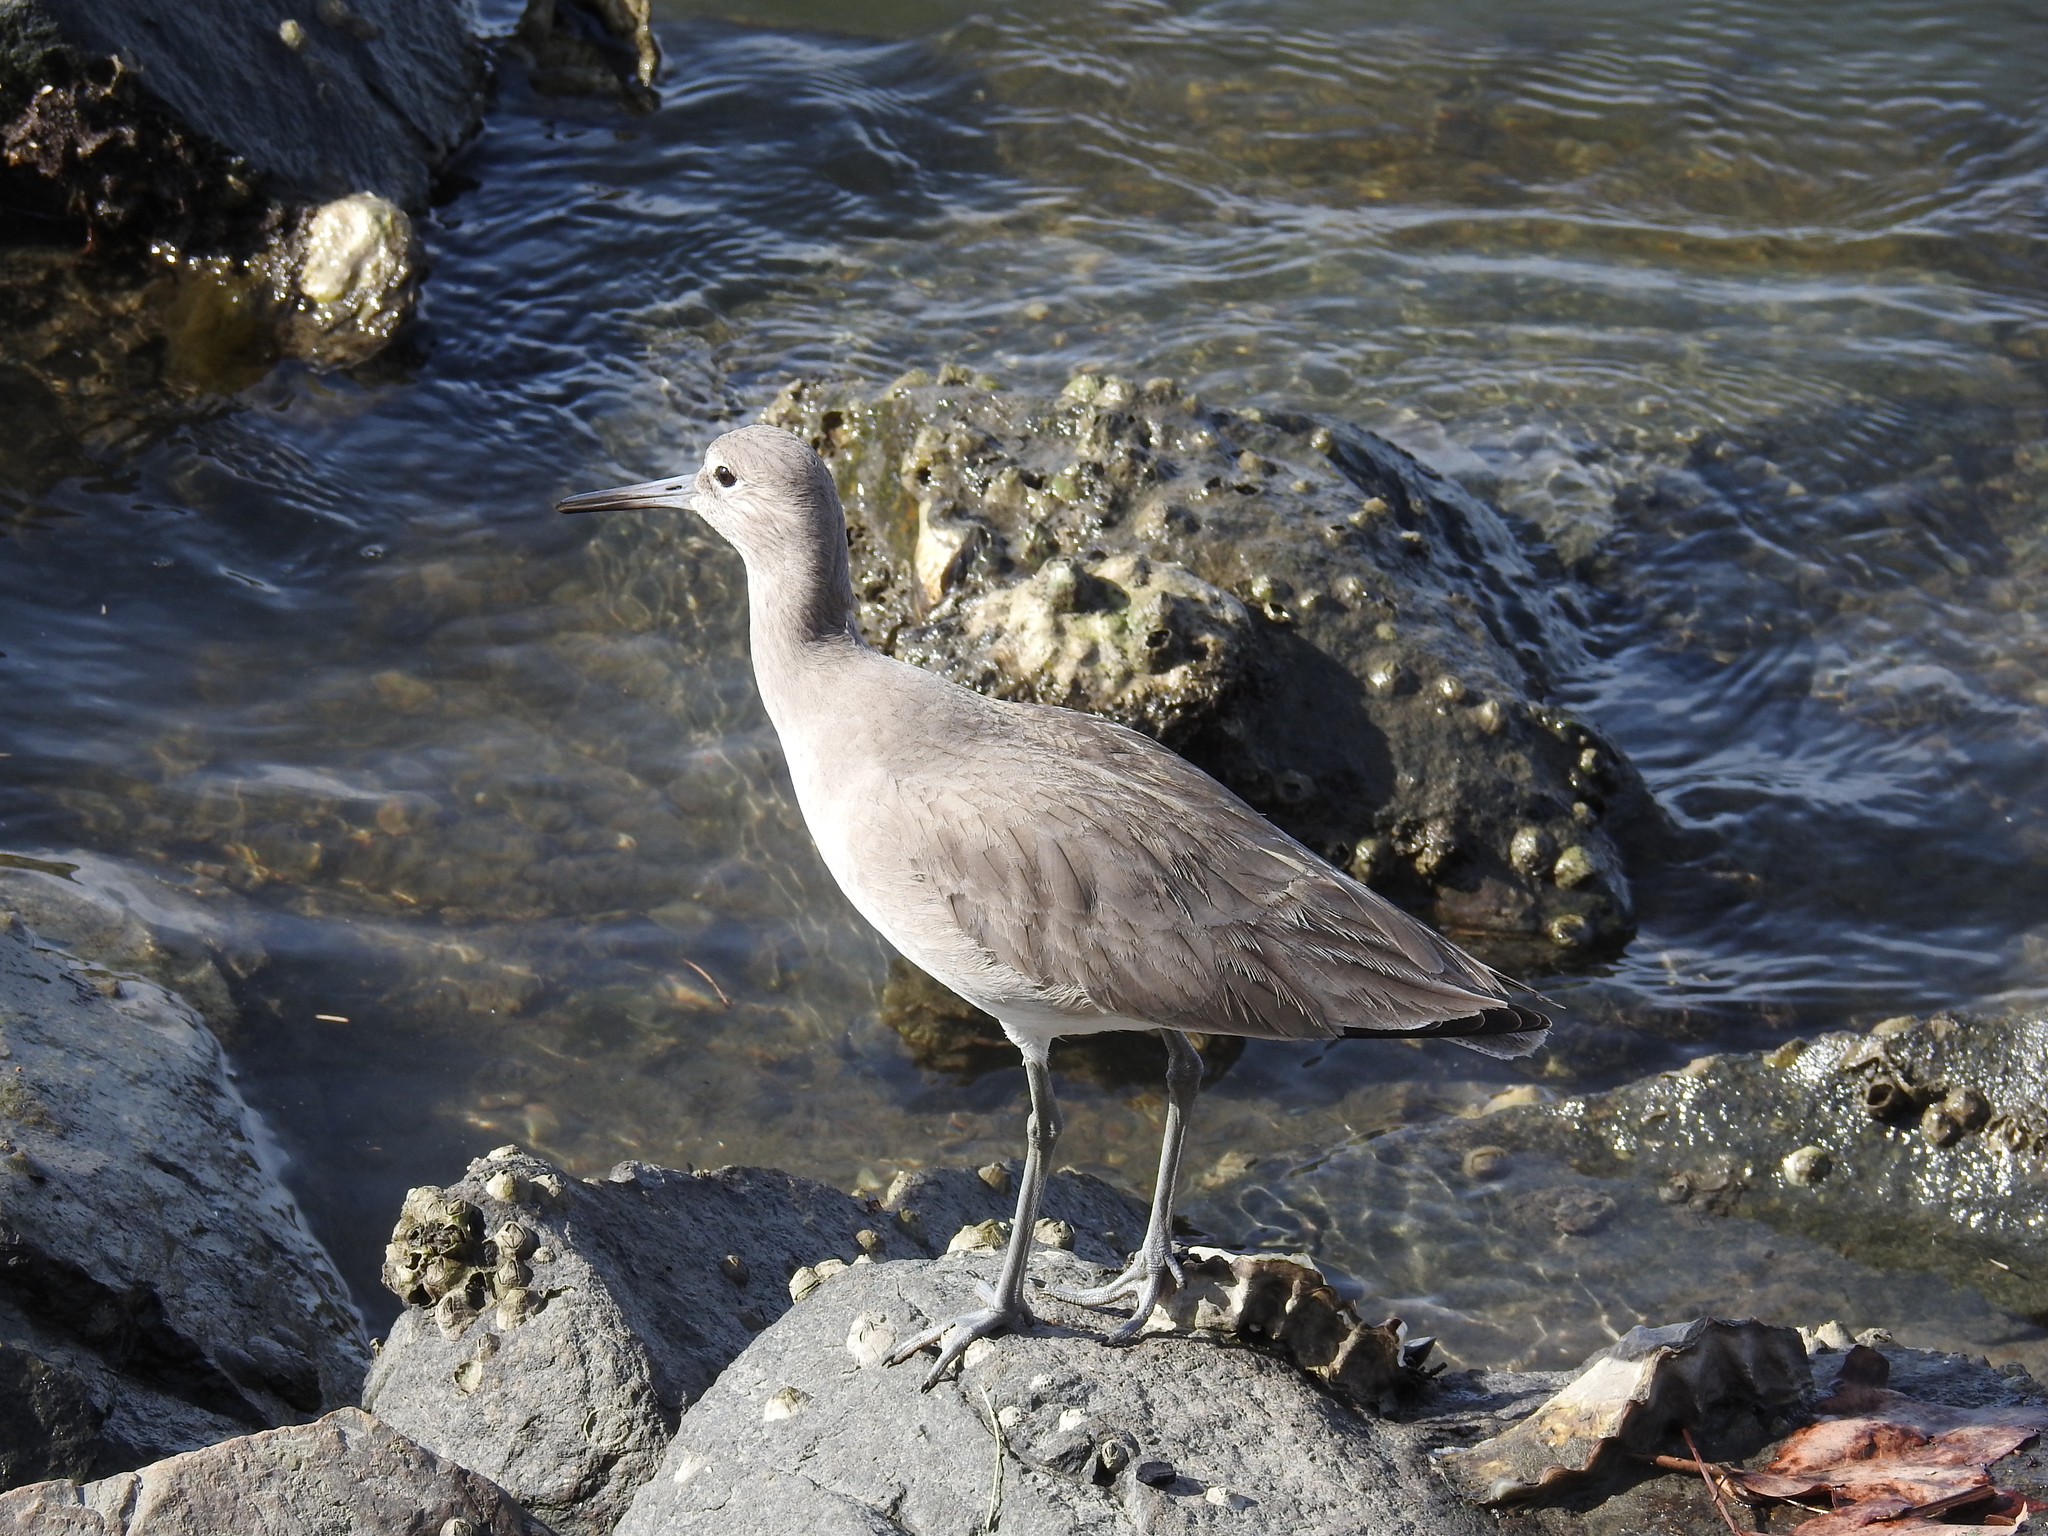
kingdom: Animalia
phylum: Chordata
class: Aves
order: Charadriiformes
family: Scolopacidae
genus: Tringa
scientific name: Tringa semipalmata
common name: Willet
